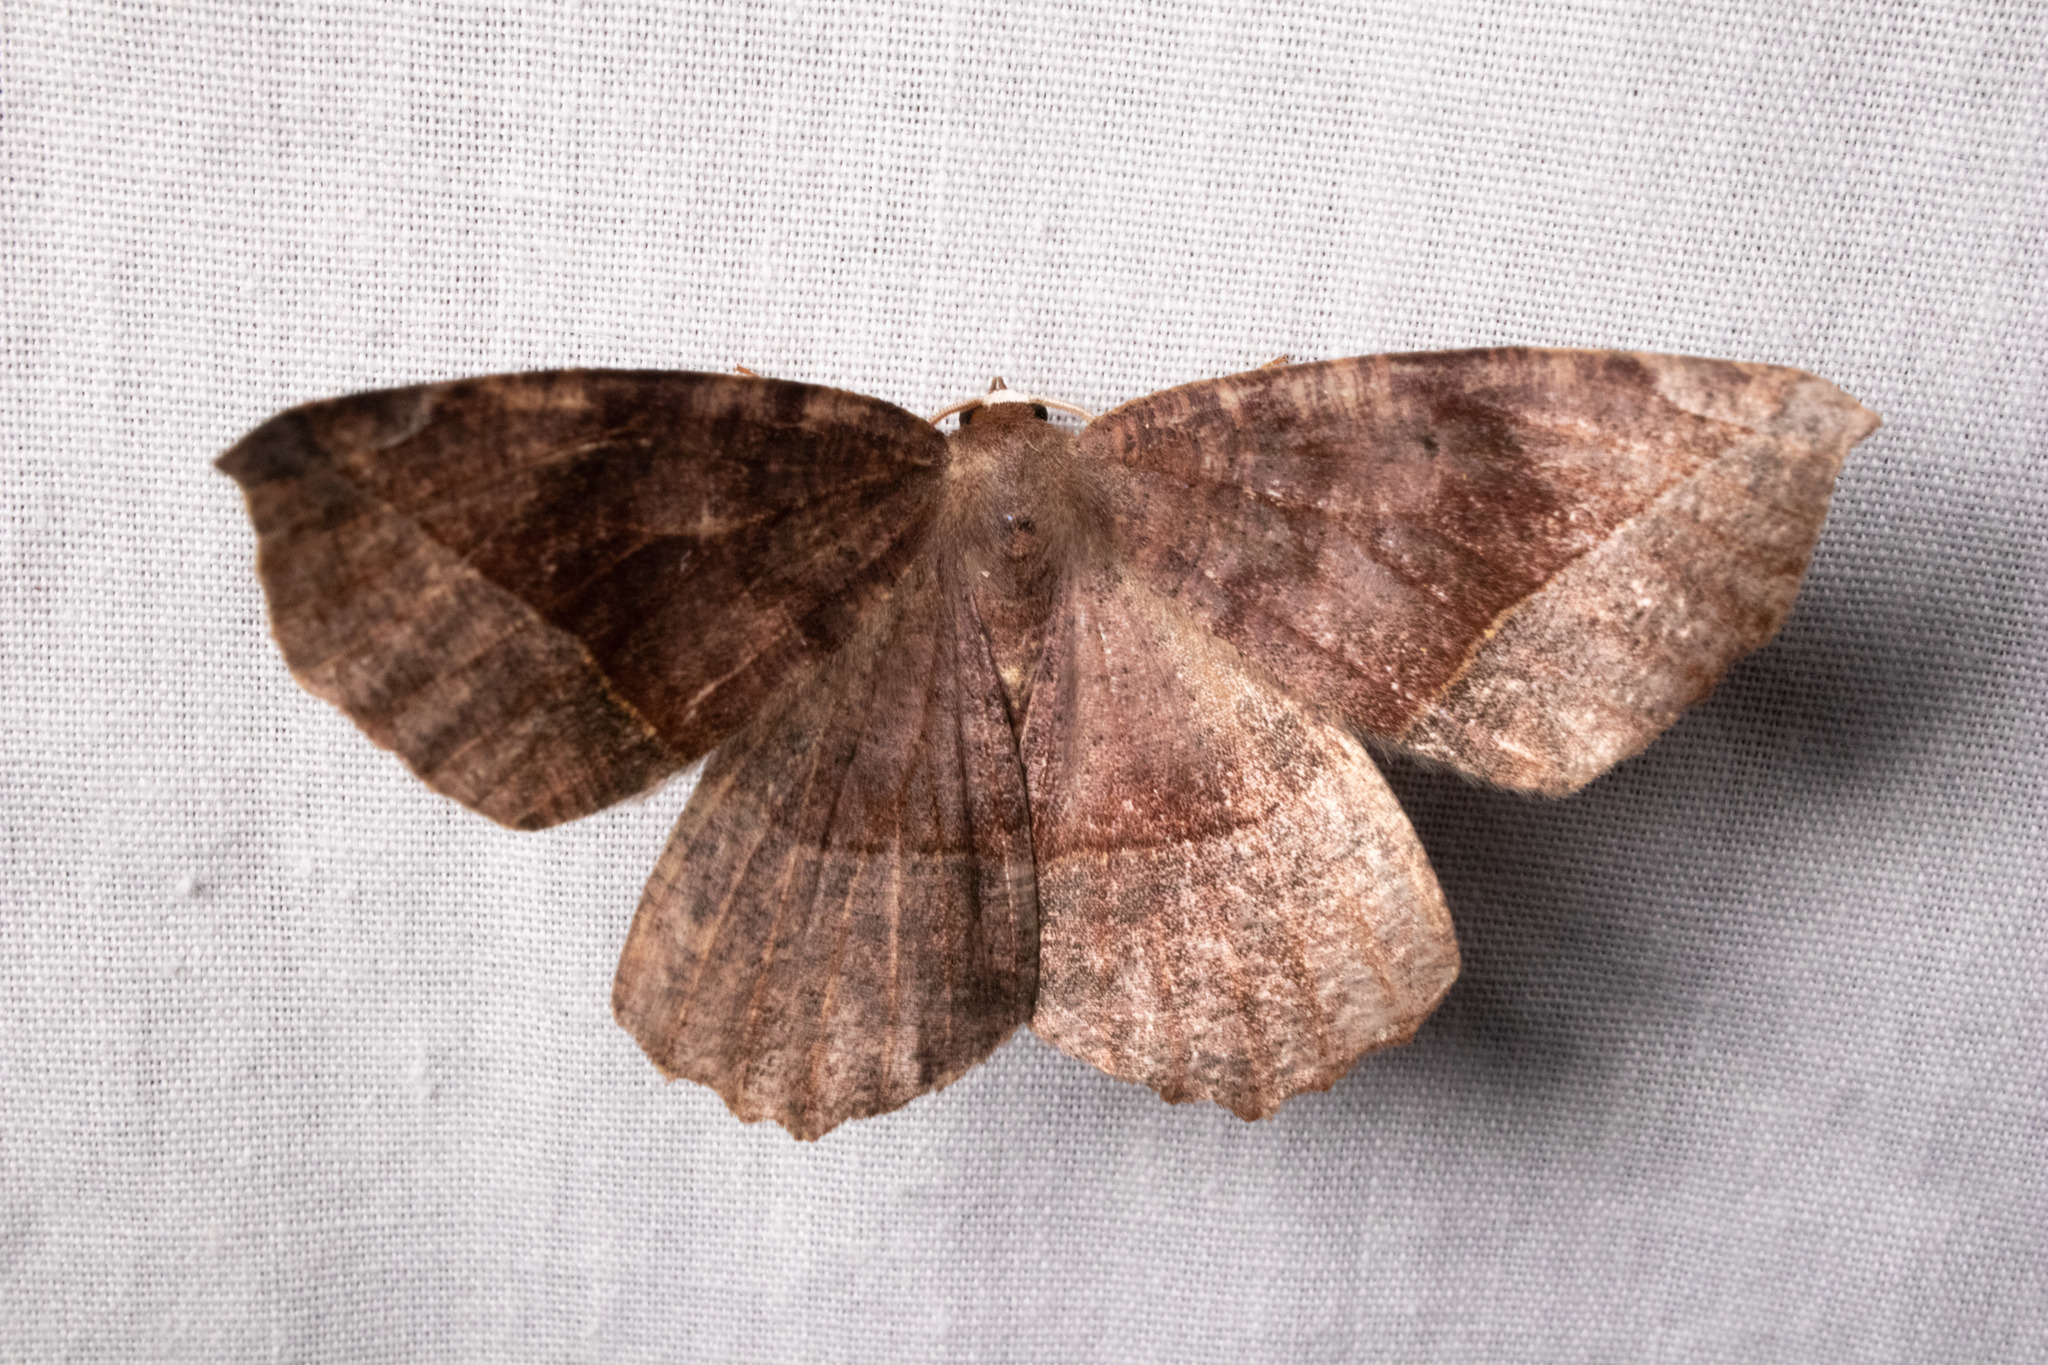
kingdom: Animalia
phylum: Arthropoda
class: Insecta
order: Lepidoptera
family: Geometridae
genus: Eutrapela
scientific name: Eutrapela clemataria
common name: Curved-toothed geometer
